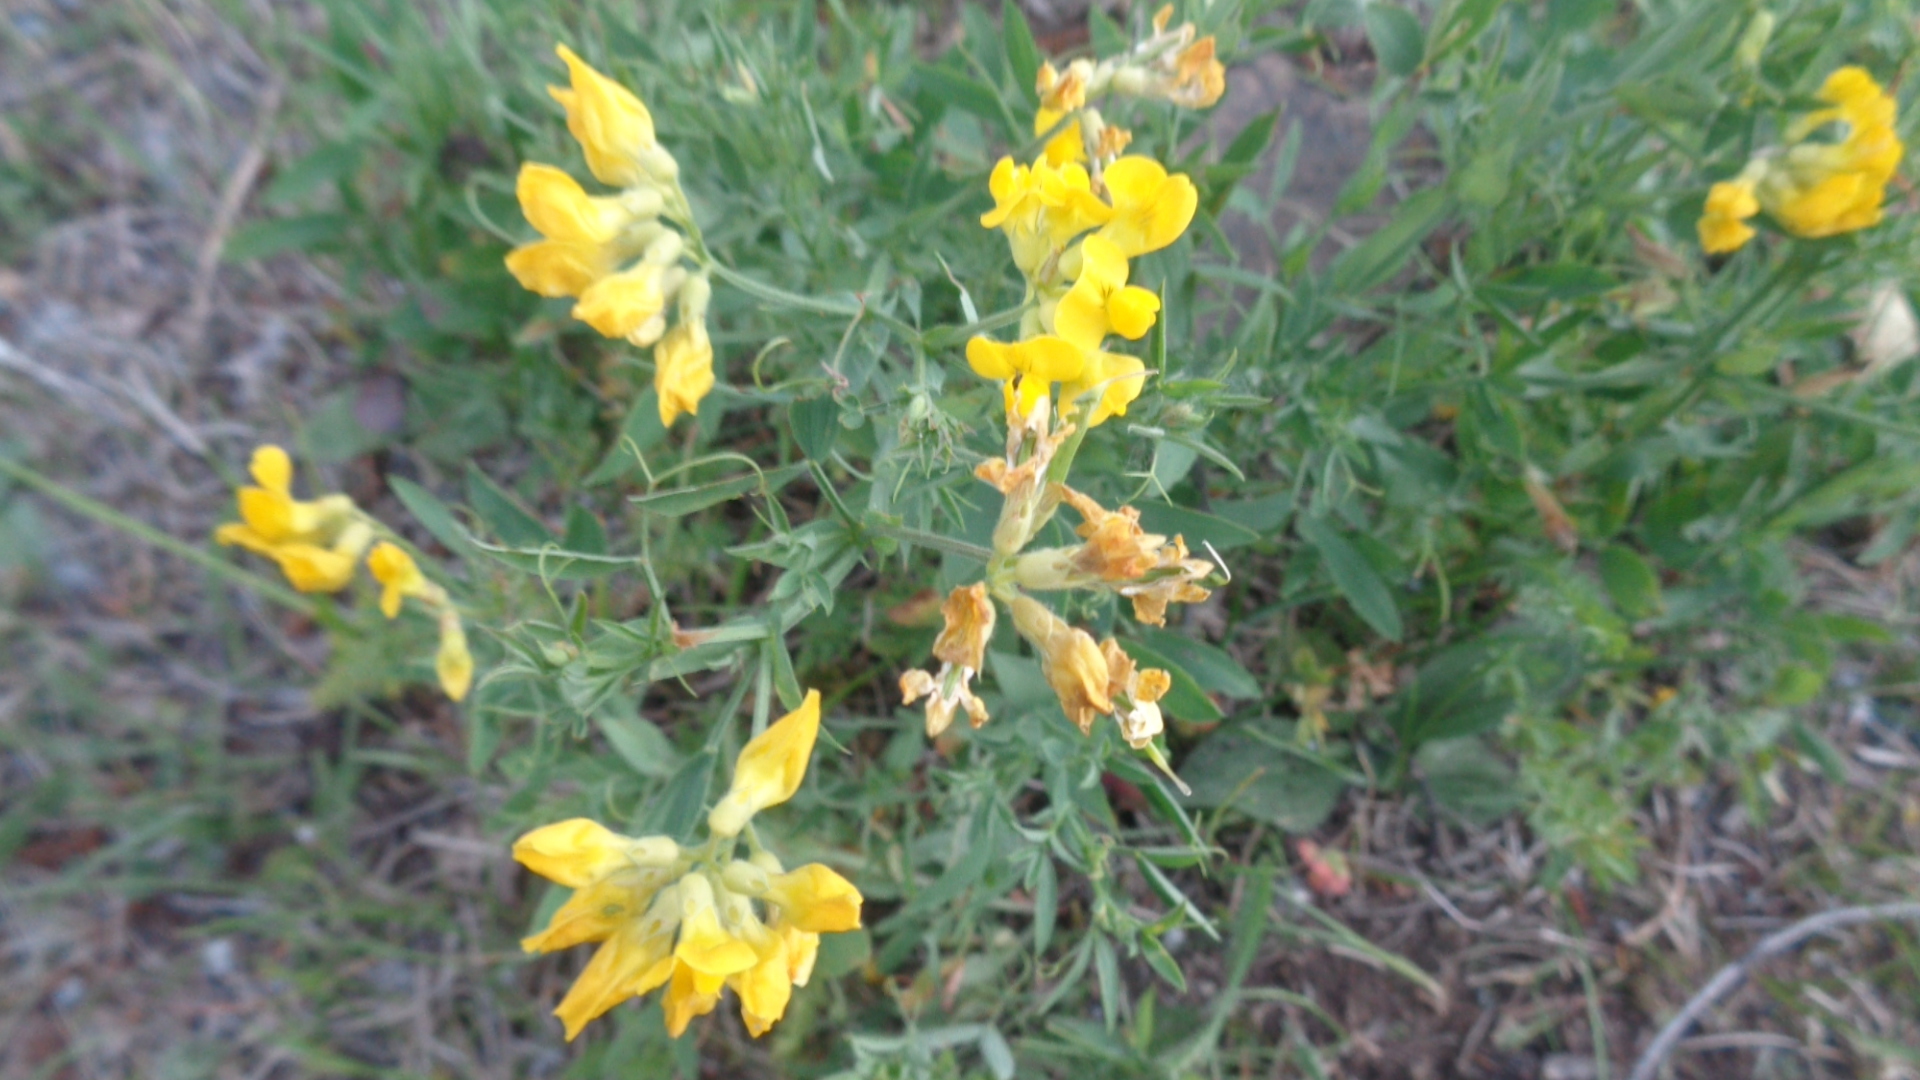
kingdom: Plantae
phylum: Tracheophyta
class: Magnoliopsida
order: Fabales
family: Fabaceae
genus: Lathyrus
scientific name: Lathyrus pratensis
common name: Meadow vetchling
